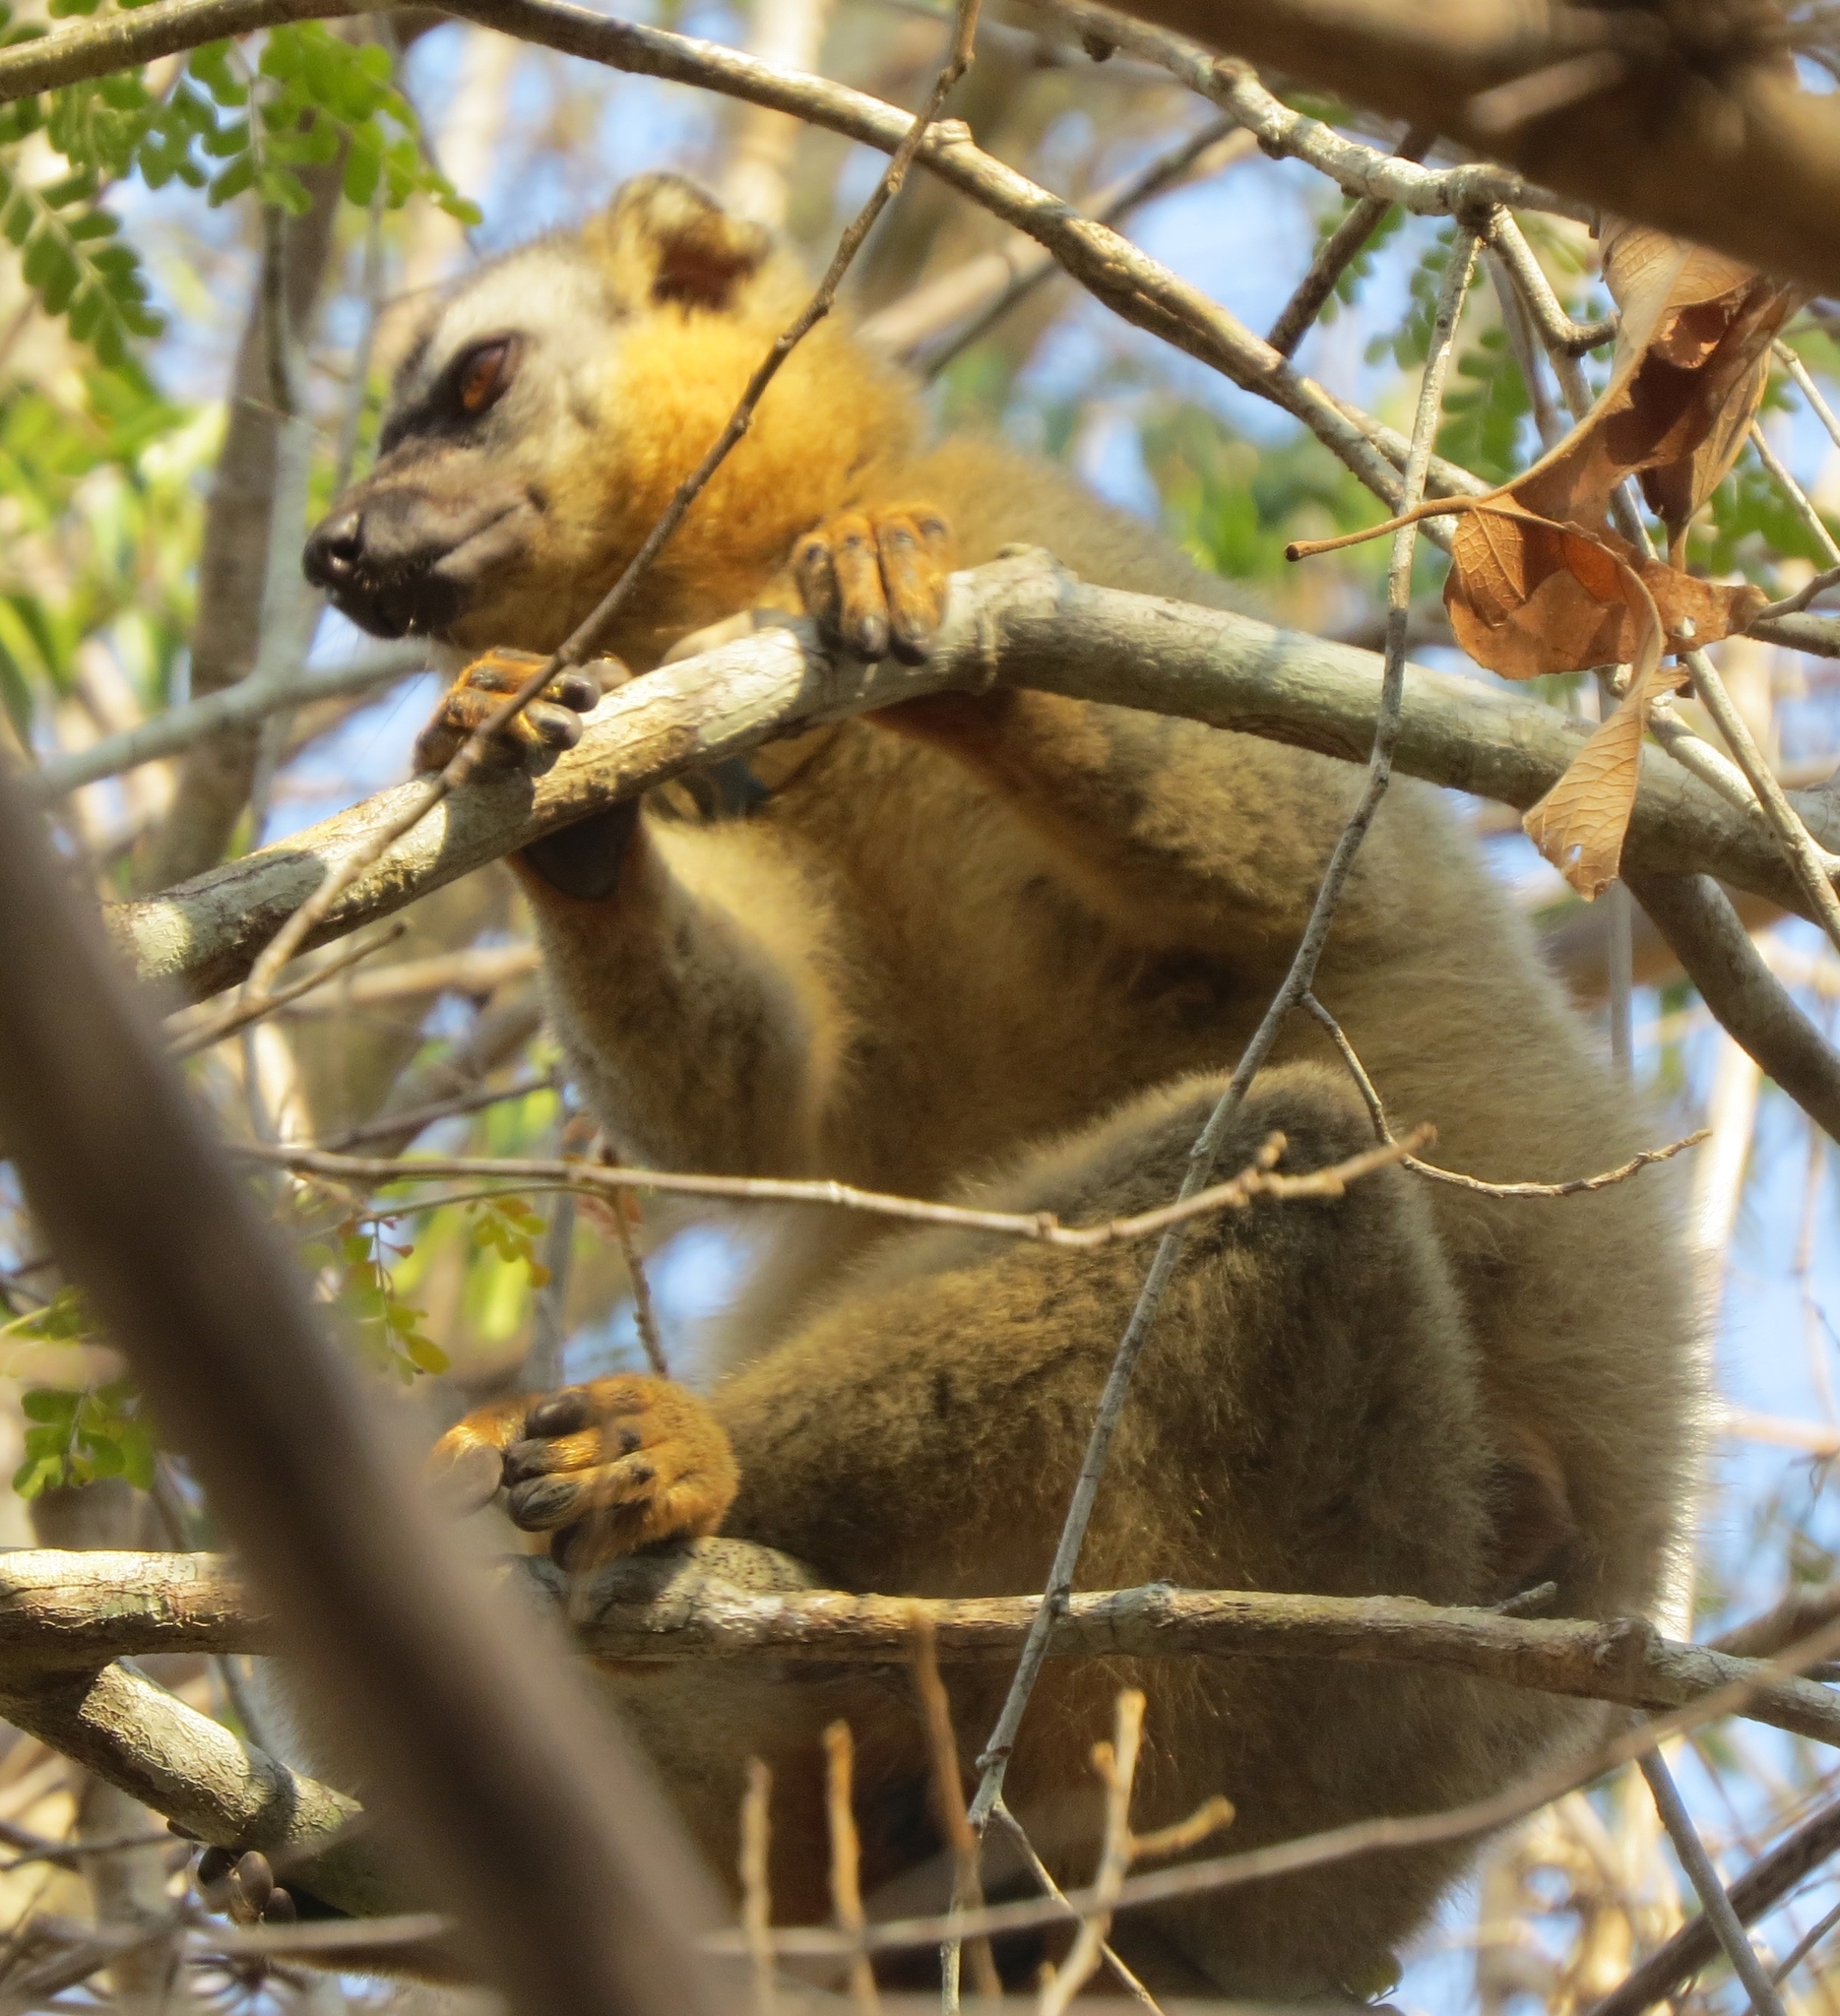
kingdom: Animalia
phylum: Chordata
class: Mammalia
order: Primates
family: Lemuridae
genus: Eulemur
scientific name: Eulemur rufifrons
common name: Red-fronted brown lemur
